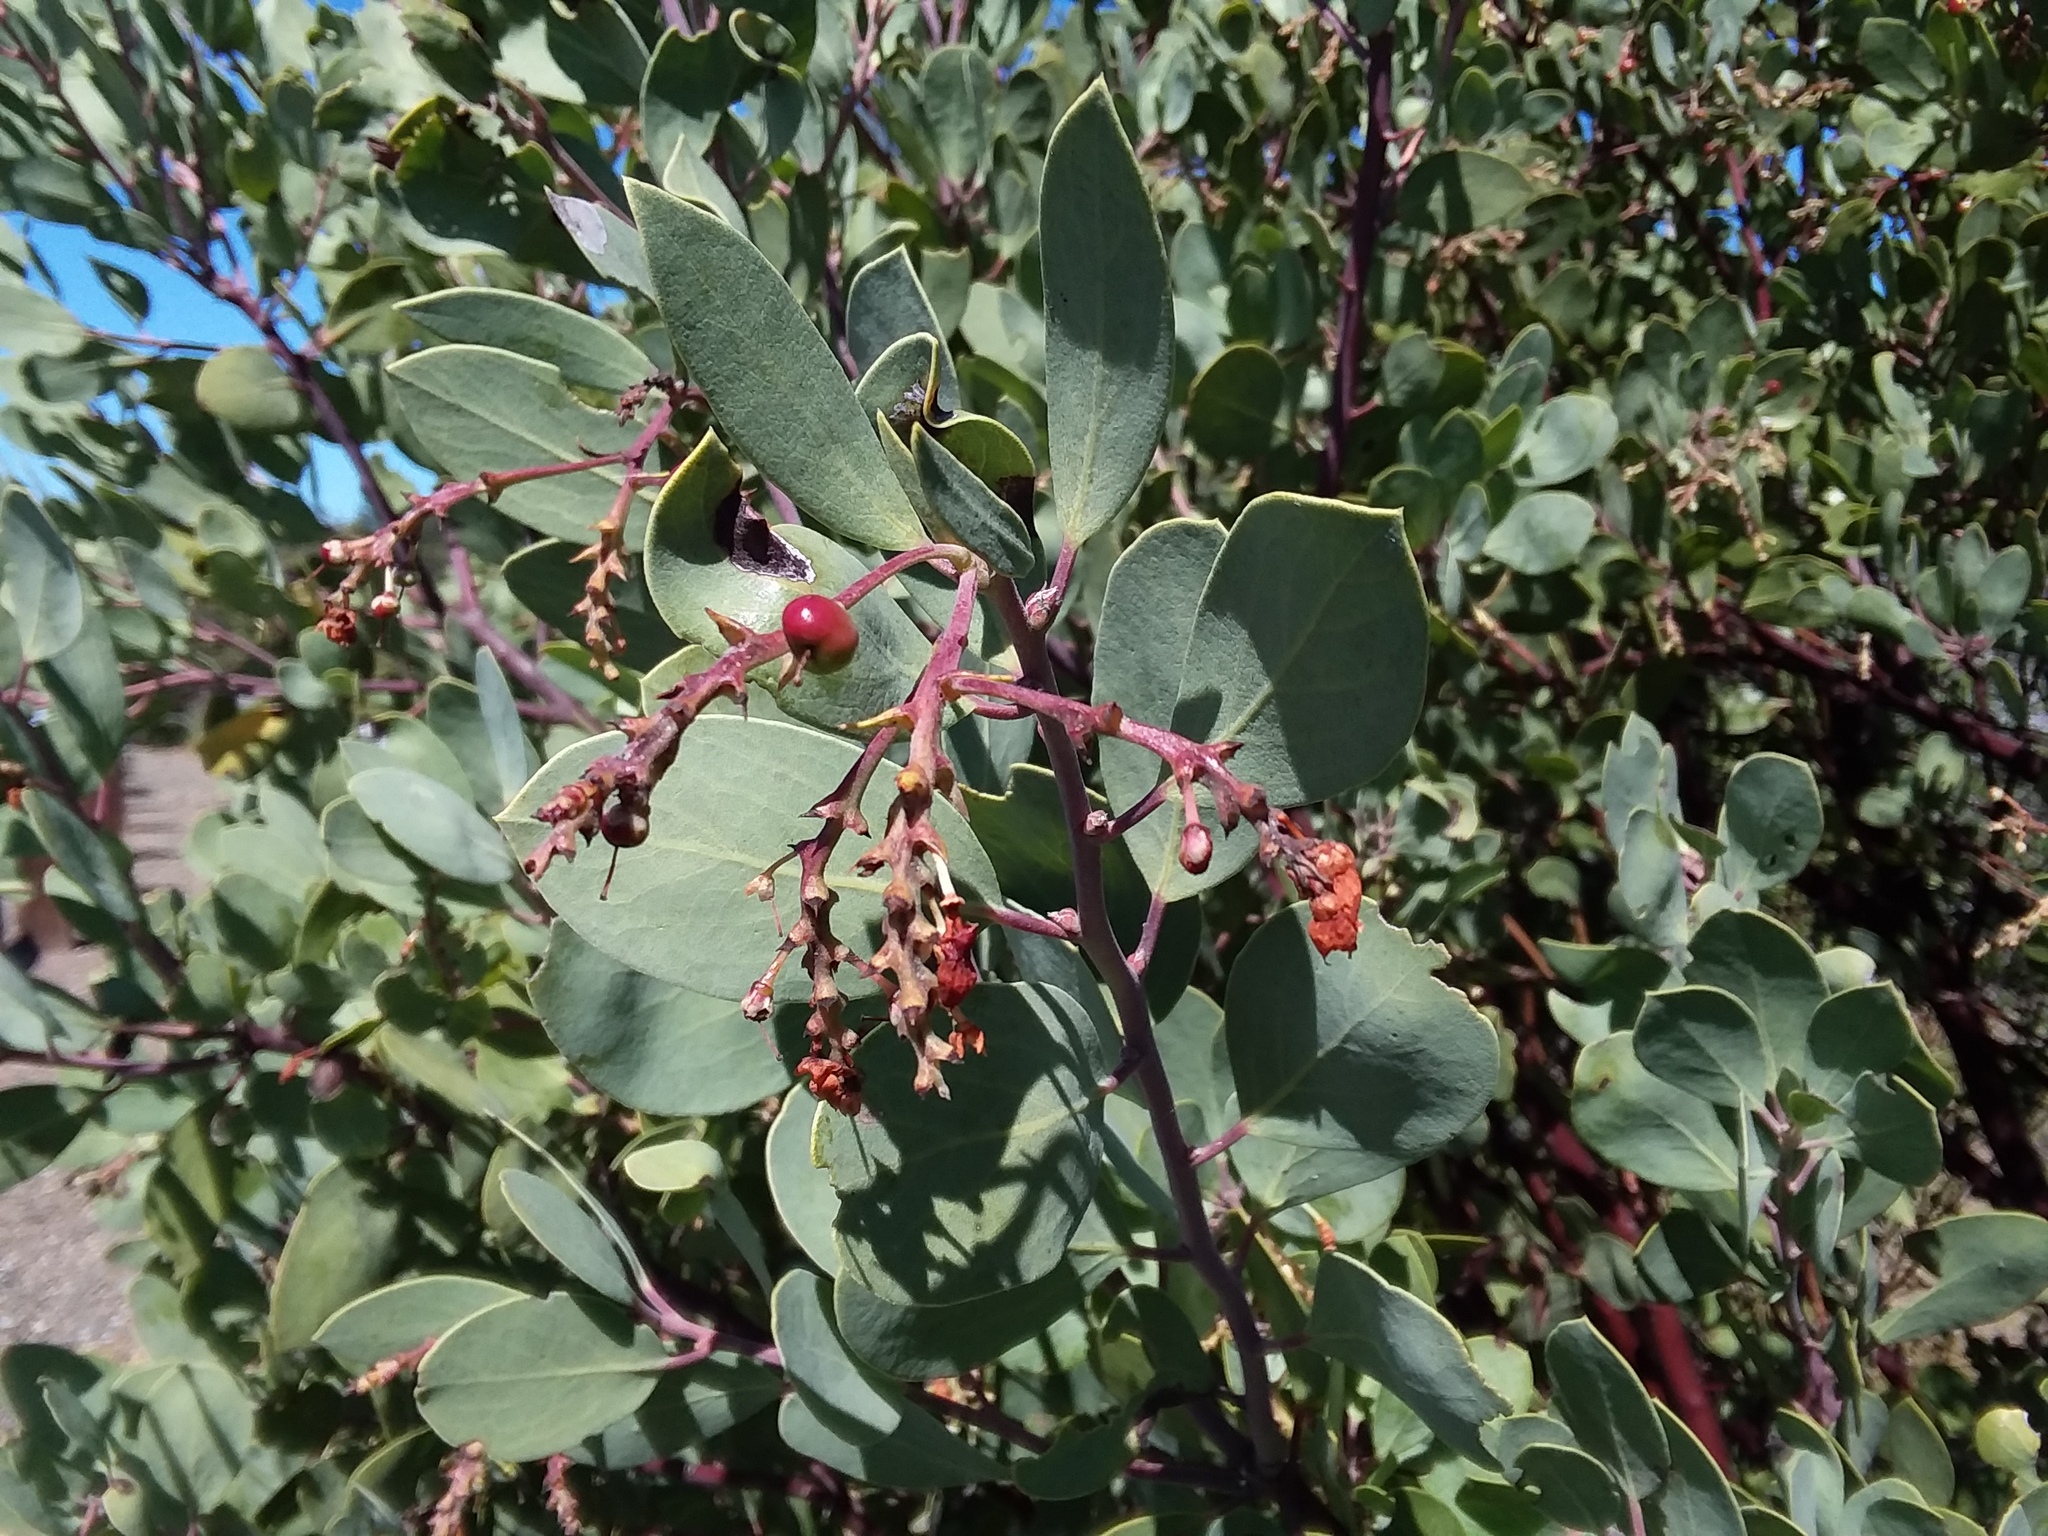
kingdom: Plantae
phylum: Tracheophyta
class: Magnoliopsida
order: Ericales
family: Ericaceae
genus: Arctostaphylos
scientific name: Arctostaphylos manzanita
